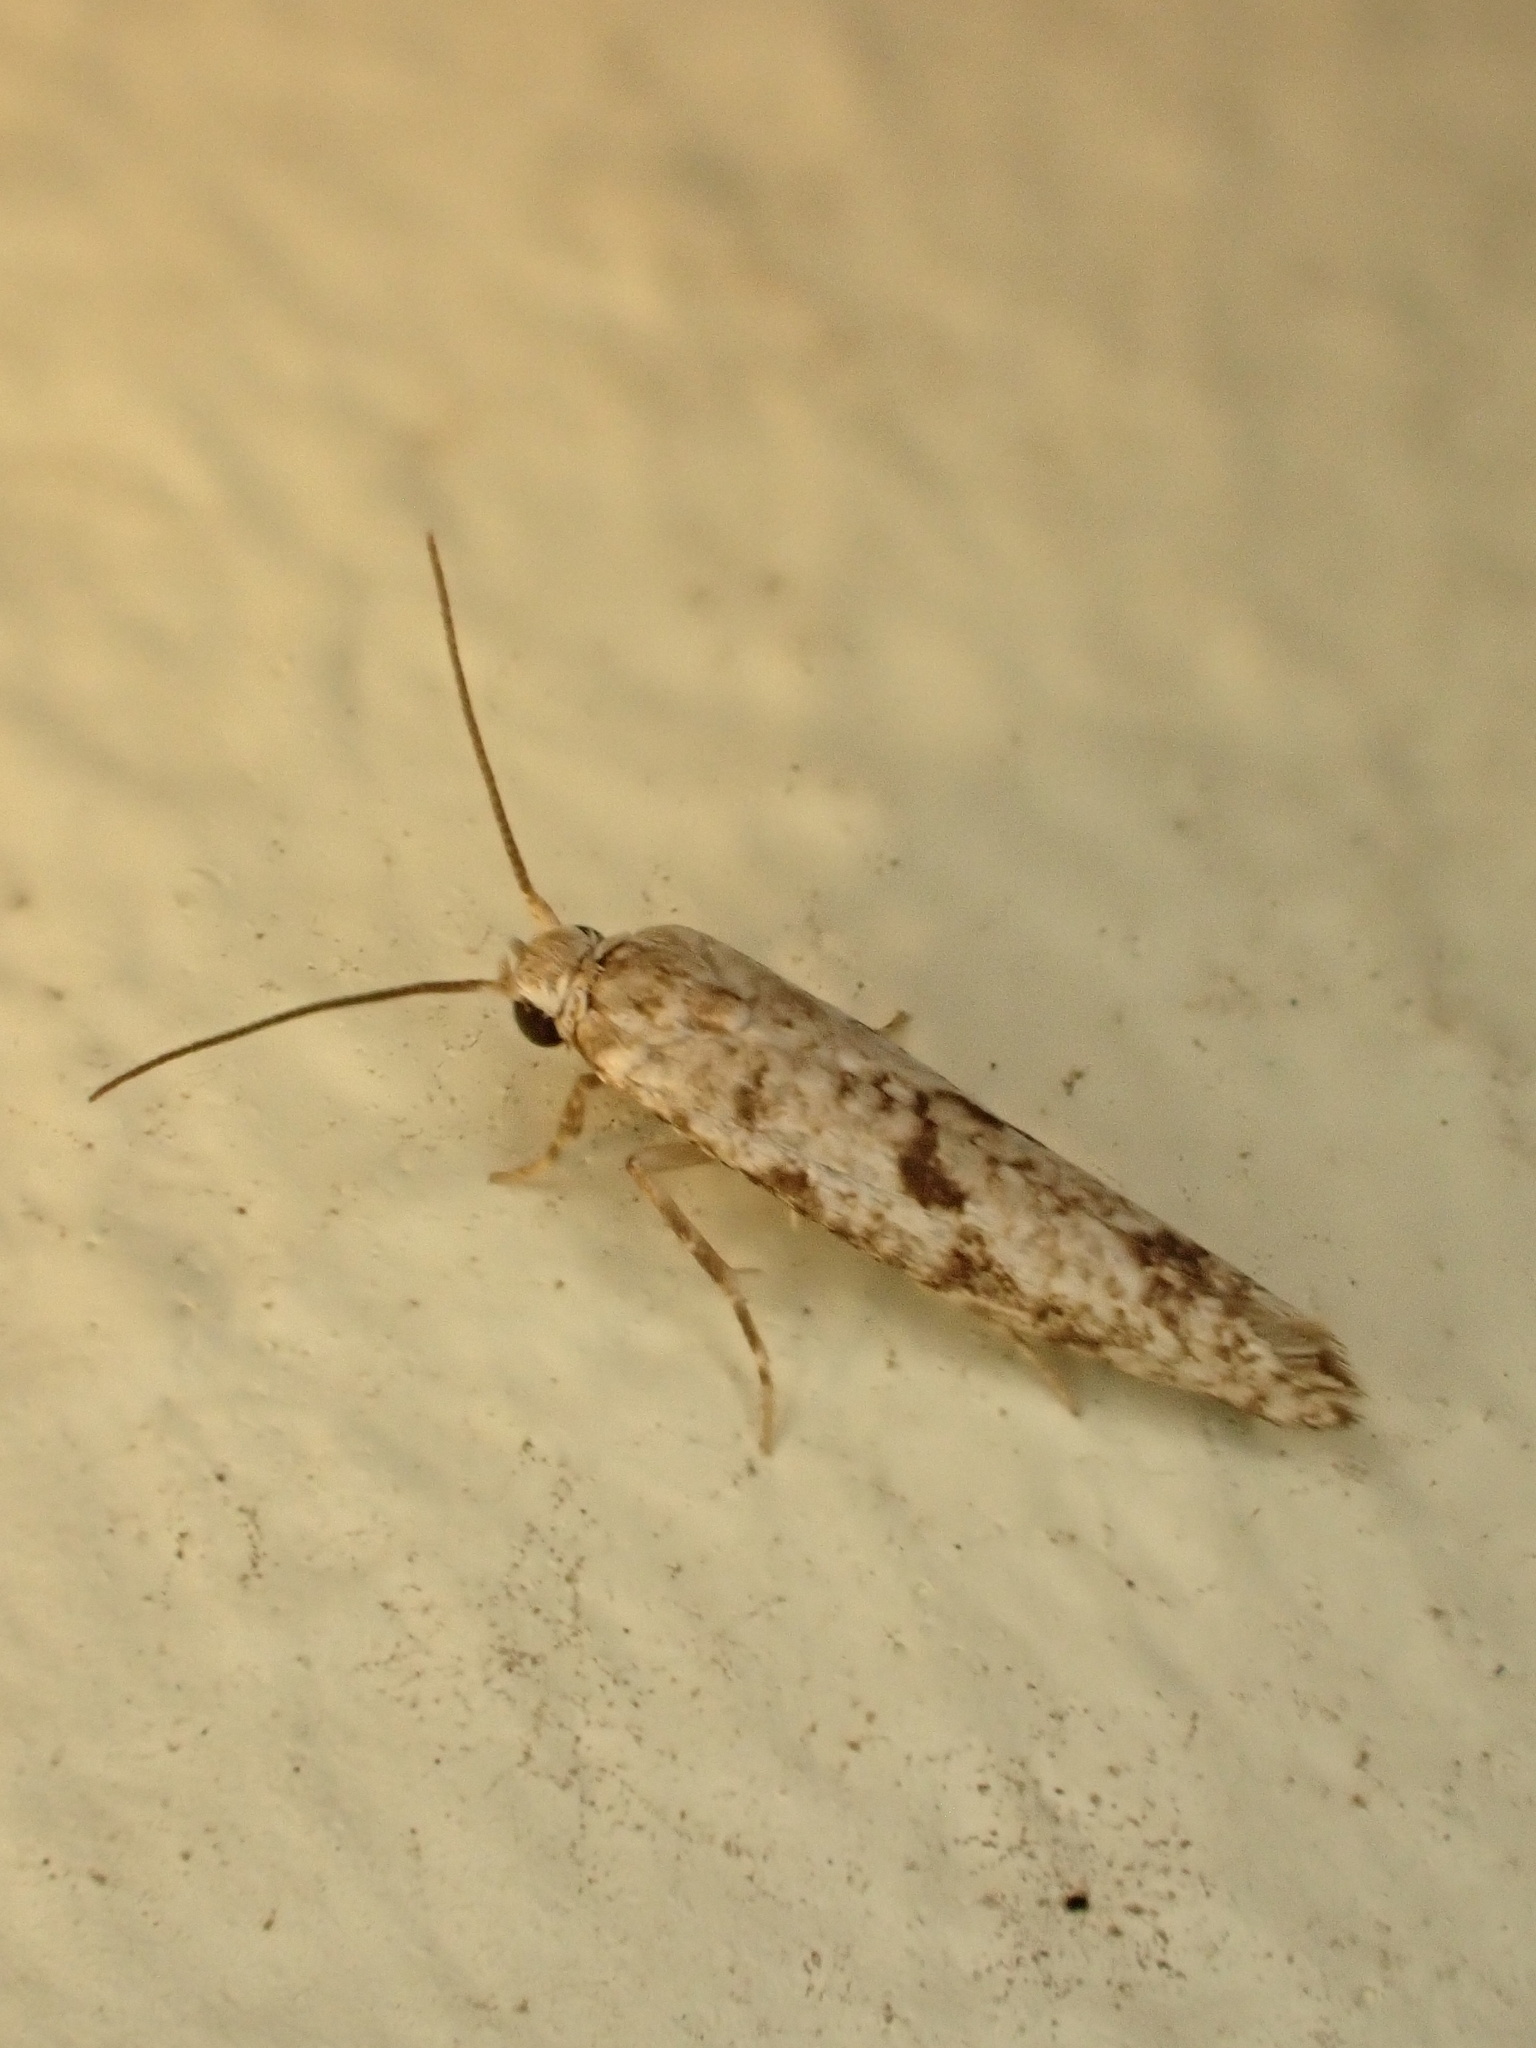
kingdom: Animalia
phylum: Arthropoda
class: Insecta
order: Lepidoptera
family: Praydidae
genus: Prays
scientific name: Prays nephelomima
